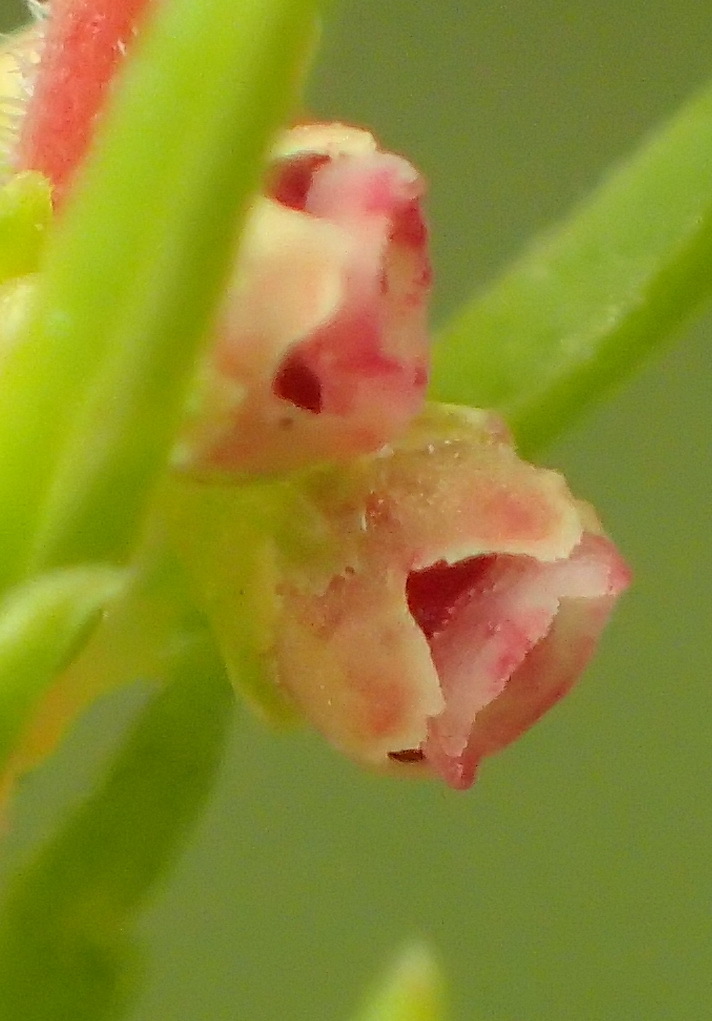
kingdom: Plantae
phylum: Tracheophyta
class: Magnoliopsida
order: Ericales
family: Ericaceae
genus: Erica
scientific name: Erica leucopelta
